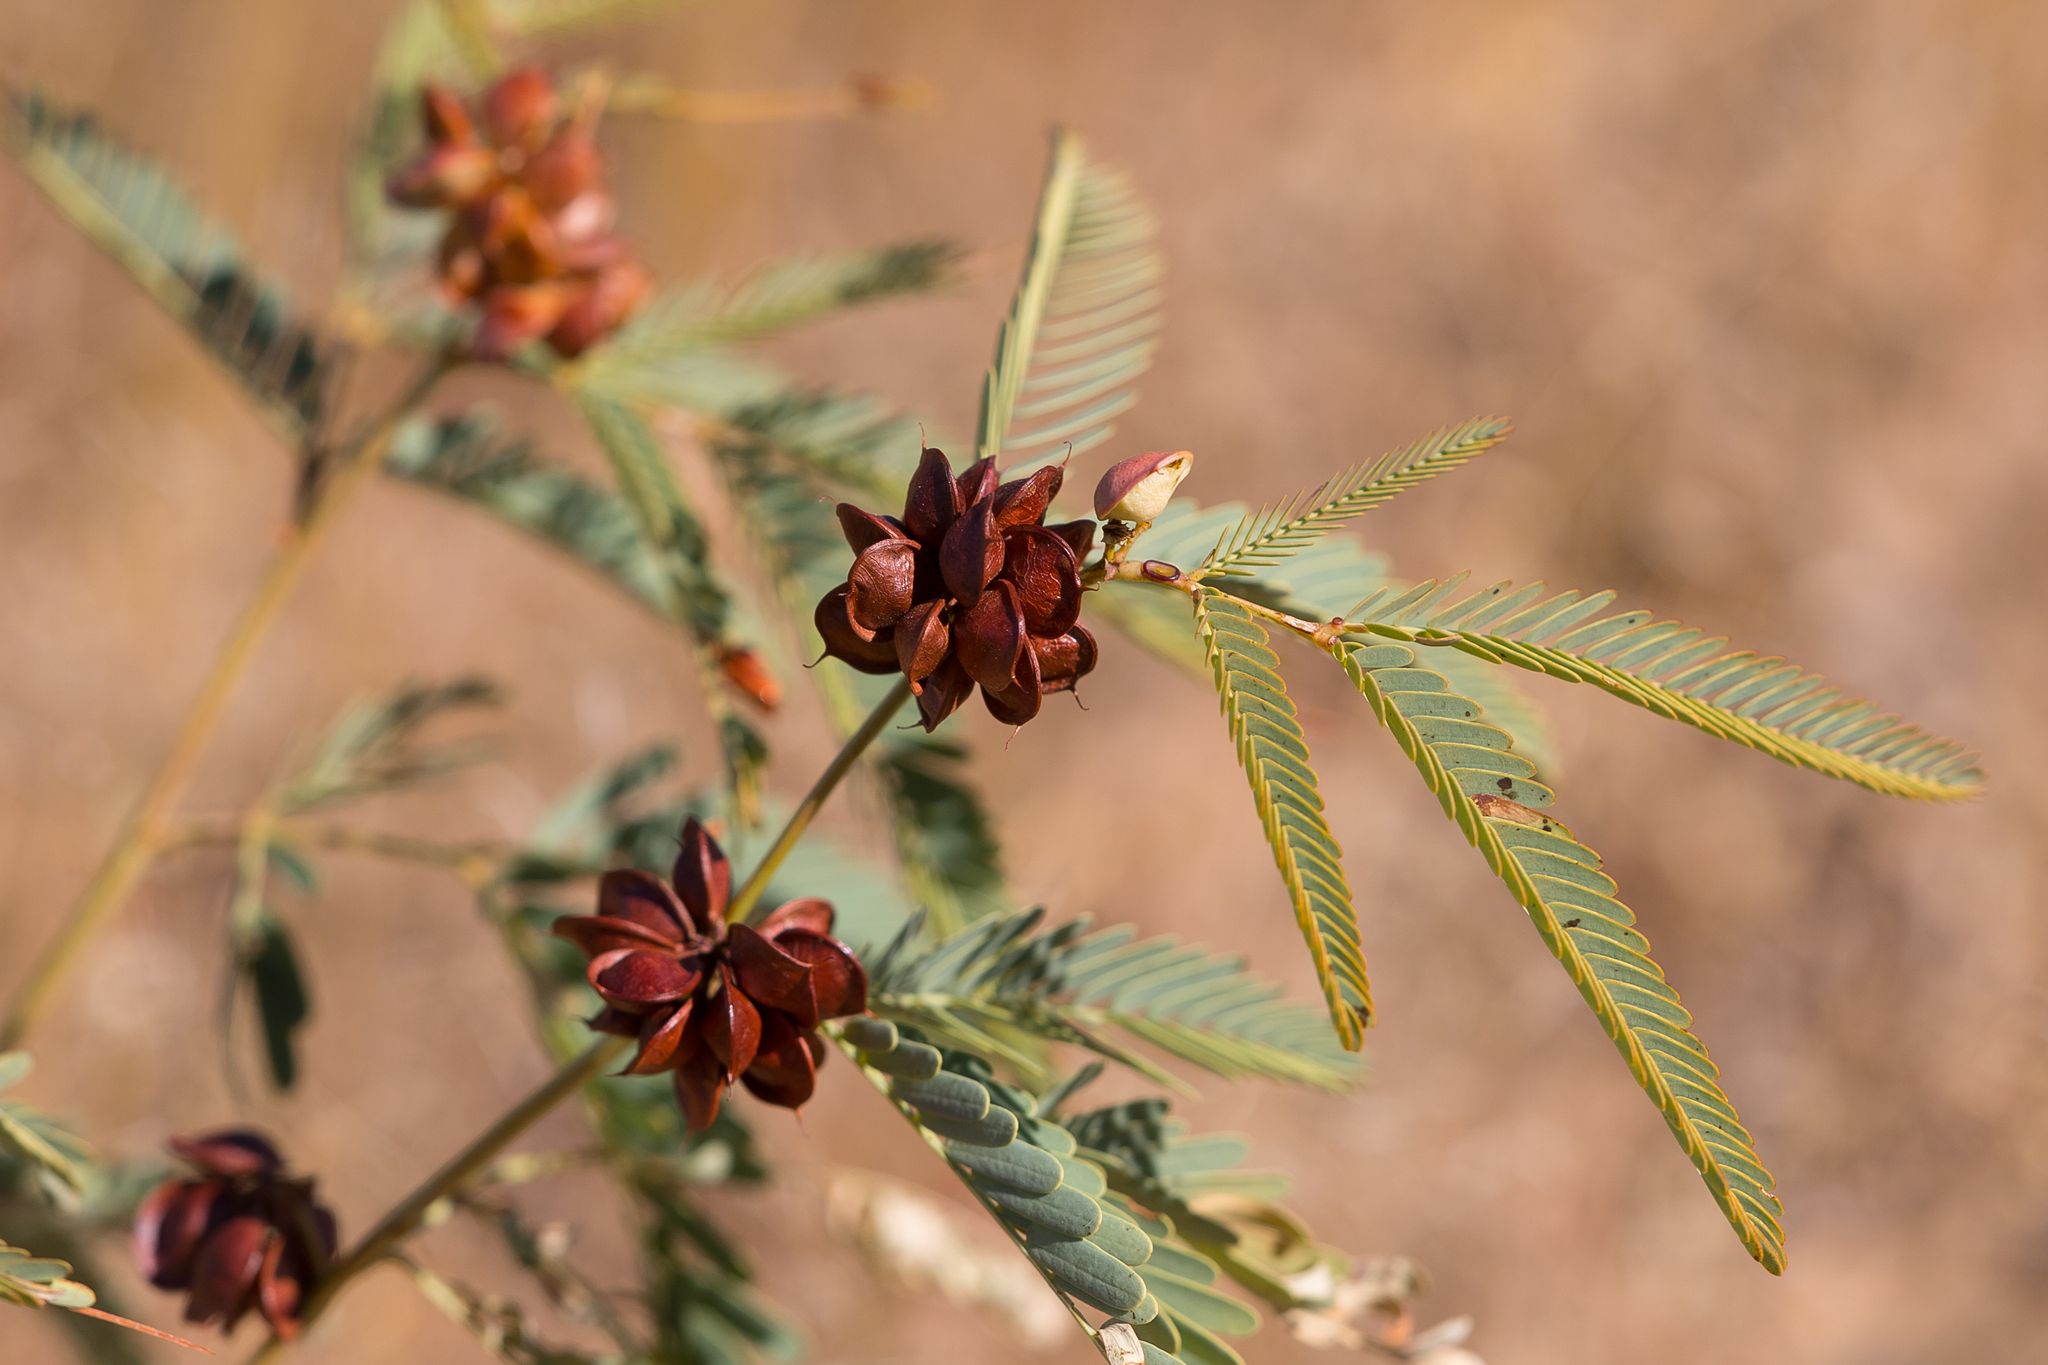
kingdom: Plantae
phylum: Tracheophyta
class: Magnoliopsida
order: Fabales
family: Fabaceae
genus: Neptunia
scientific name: Neptunia monosperma
